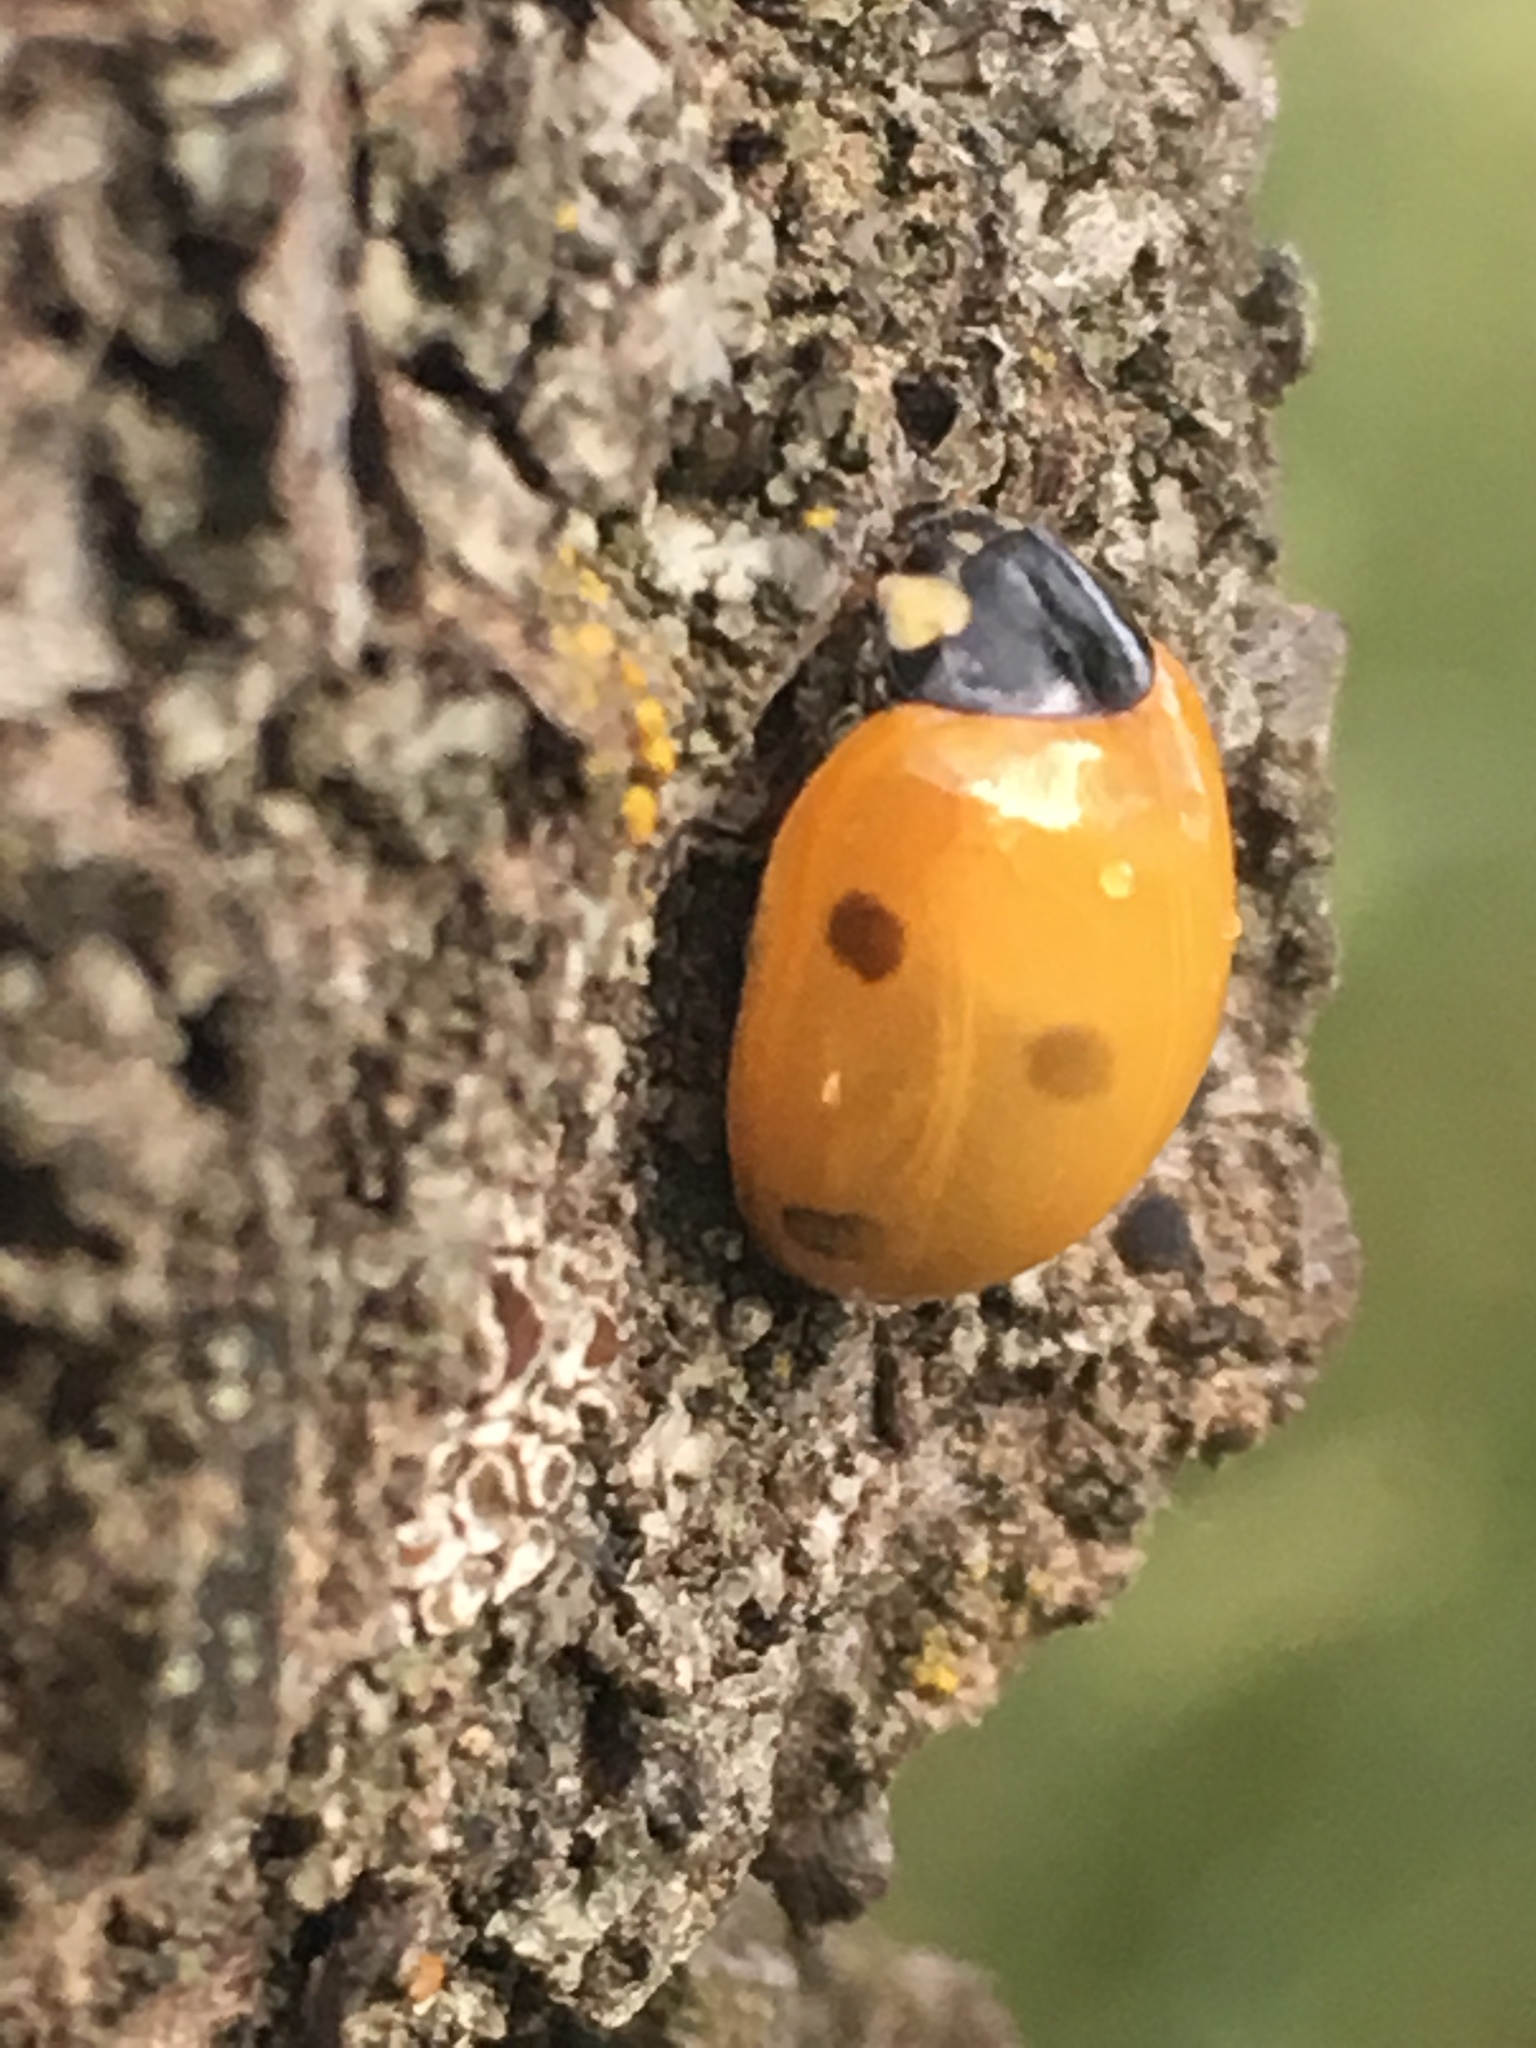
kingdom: Animalia
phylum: Arthropoda
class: Insecta
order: Coleoptera
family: Coccinellidae
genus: Coccinella
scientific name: Coccinella septempunctata
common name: Sevenspotted lady beetle
